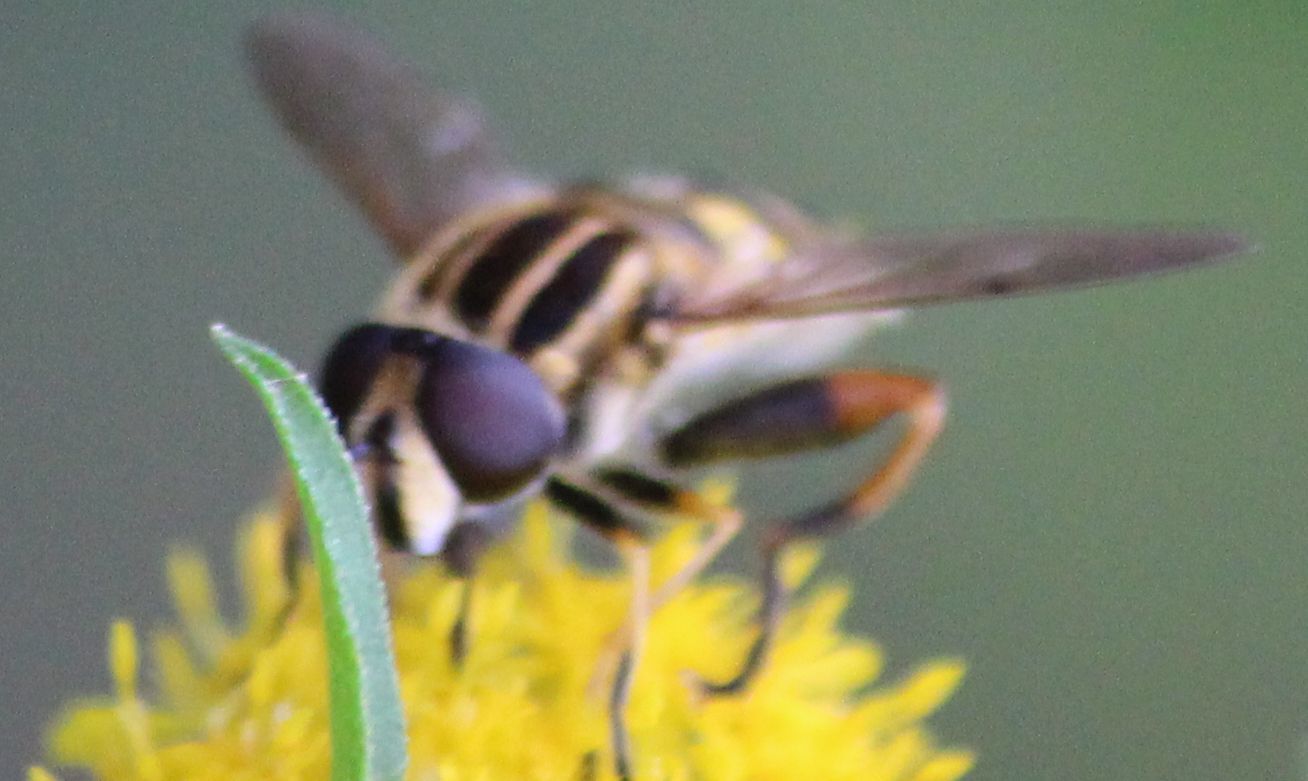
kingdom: Animalia
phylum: Arthropoda
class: Insecta
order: Diptera
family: Syrphidae
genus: Helophilus
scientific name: Helophilus pendulus
